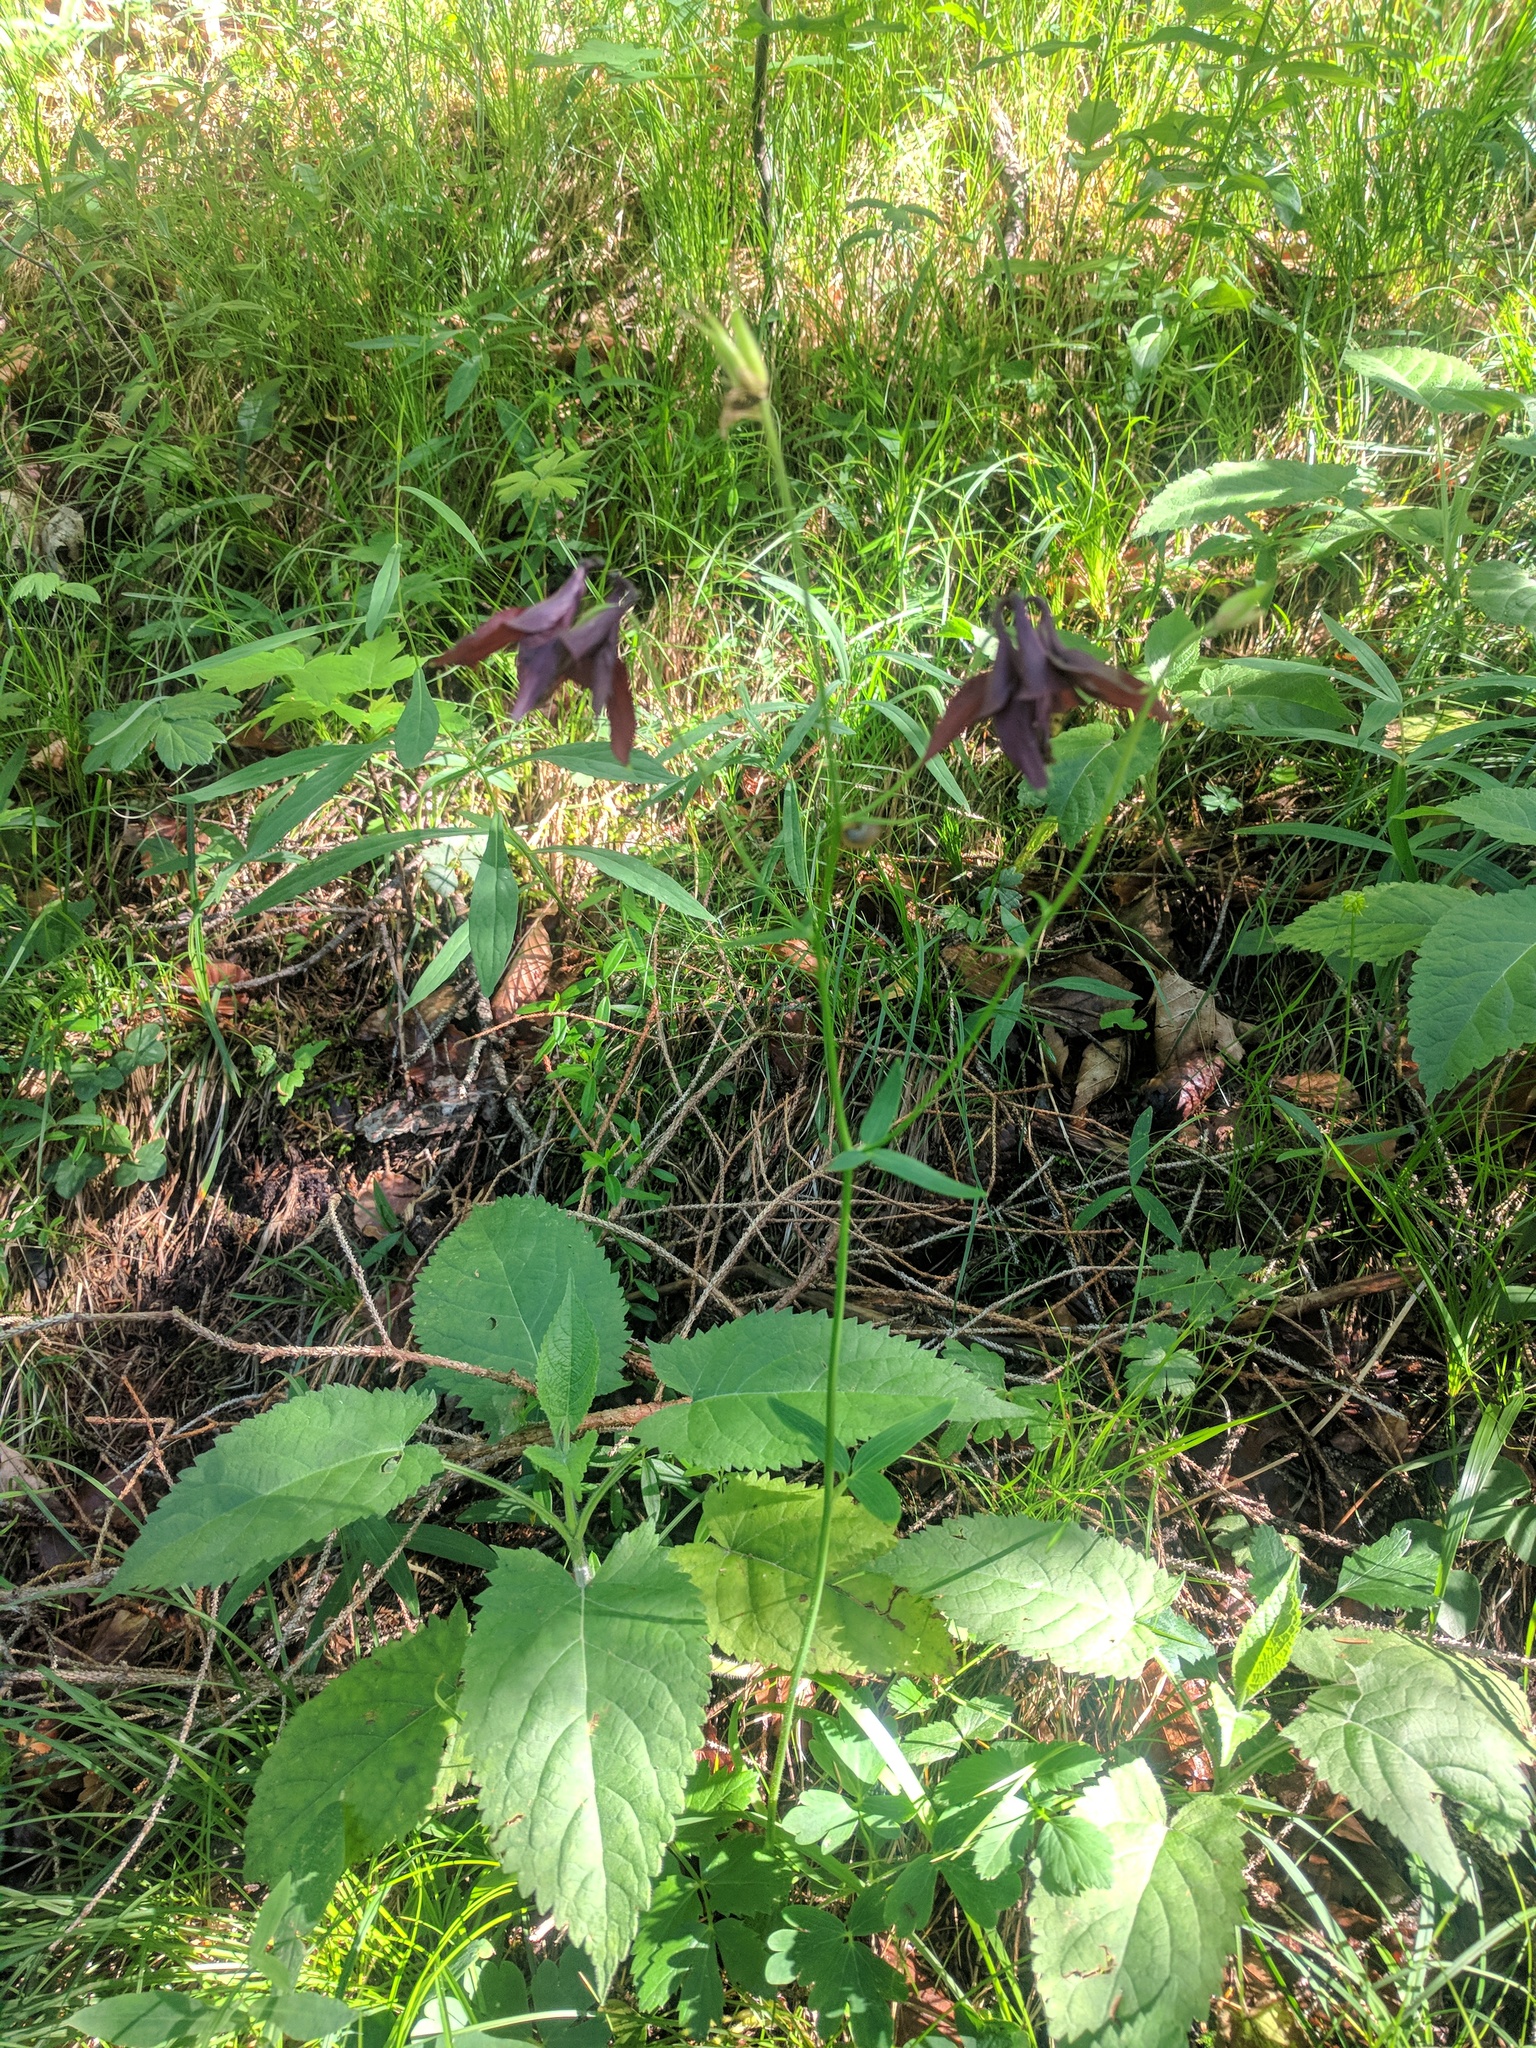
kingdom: Plantae
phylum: Tracheophyta
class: Magnoliopsida
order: Ranunculales
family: Ranunculaceae
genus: Aquilegia
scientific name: Aquilegia atrata
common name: Dark columbine
